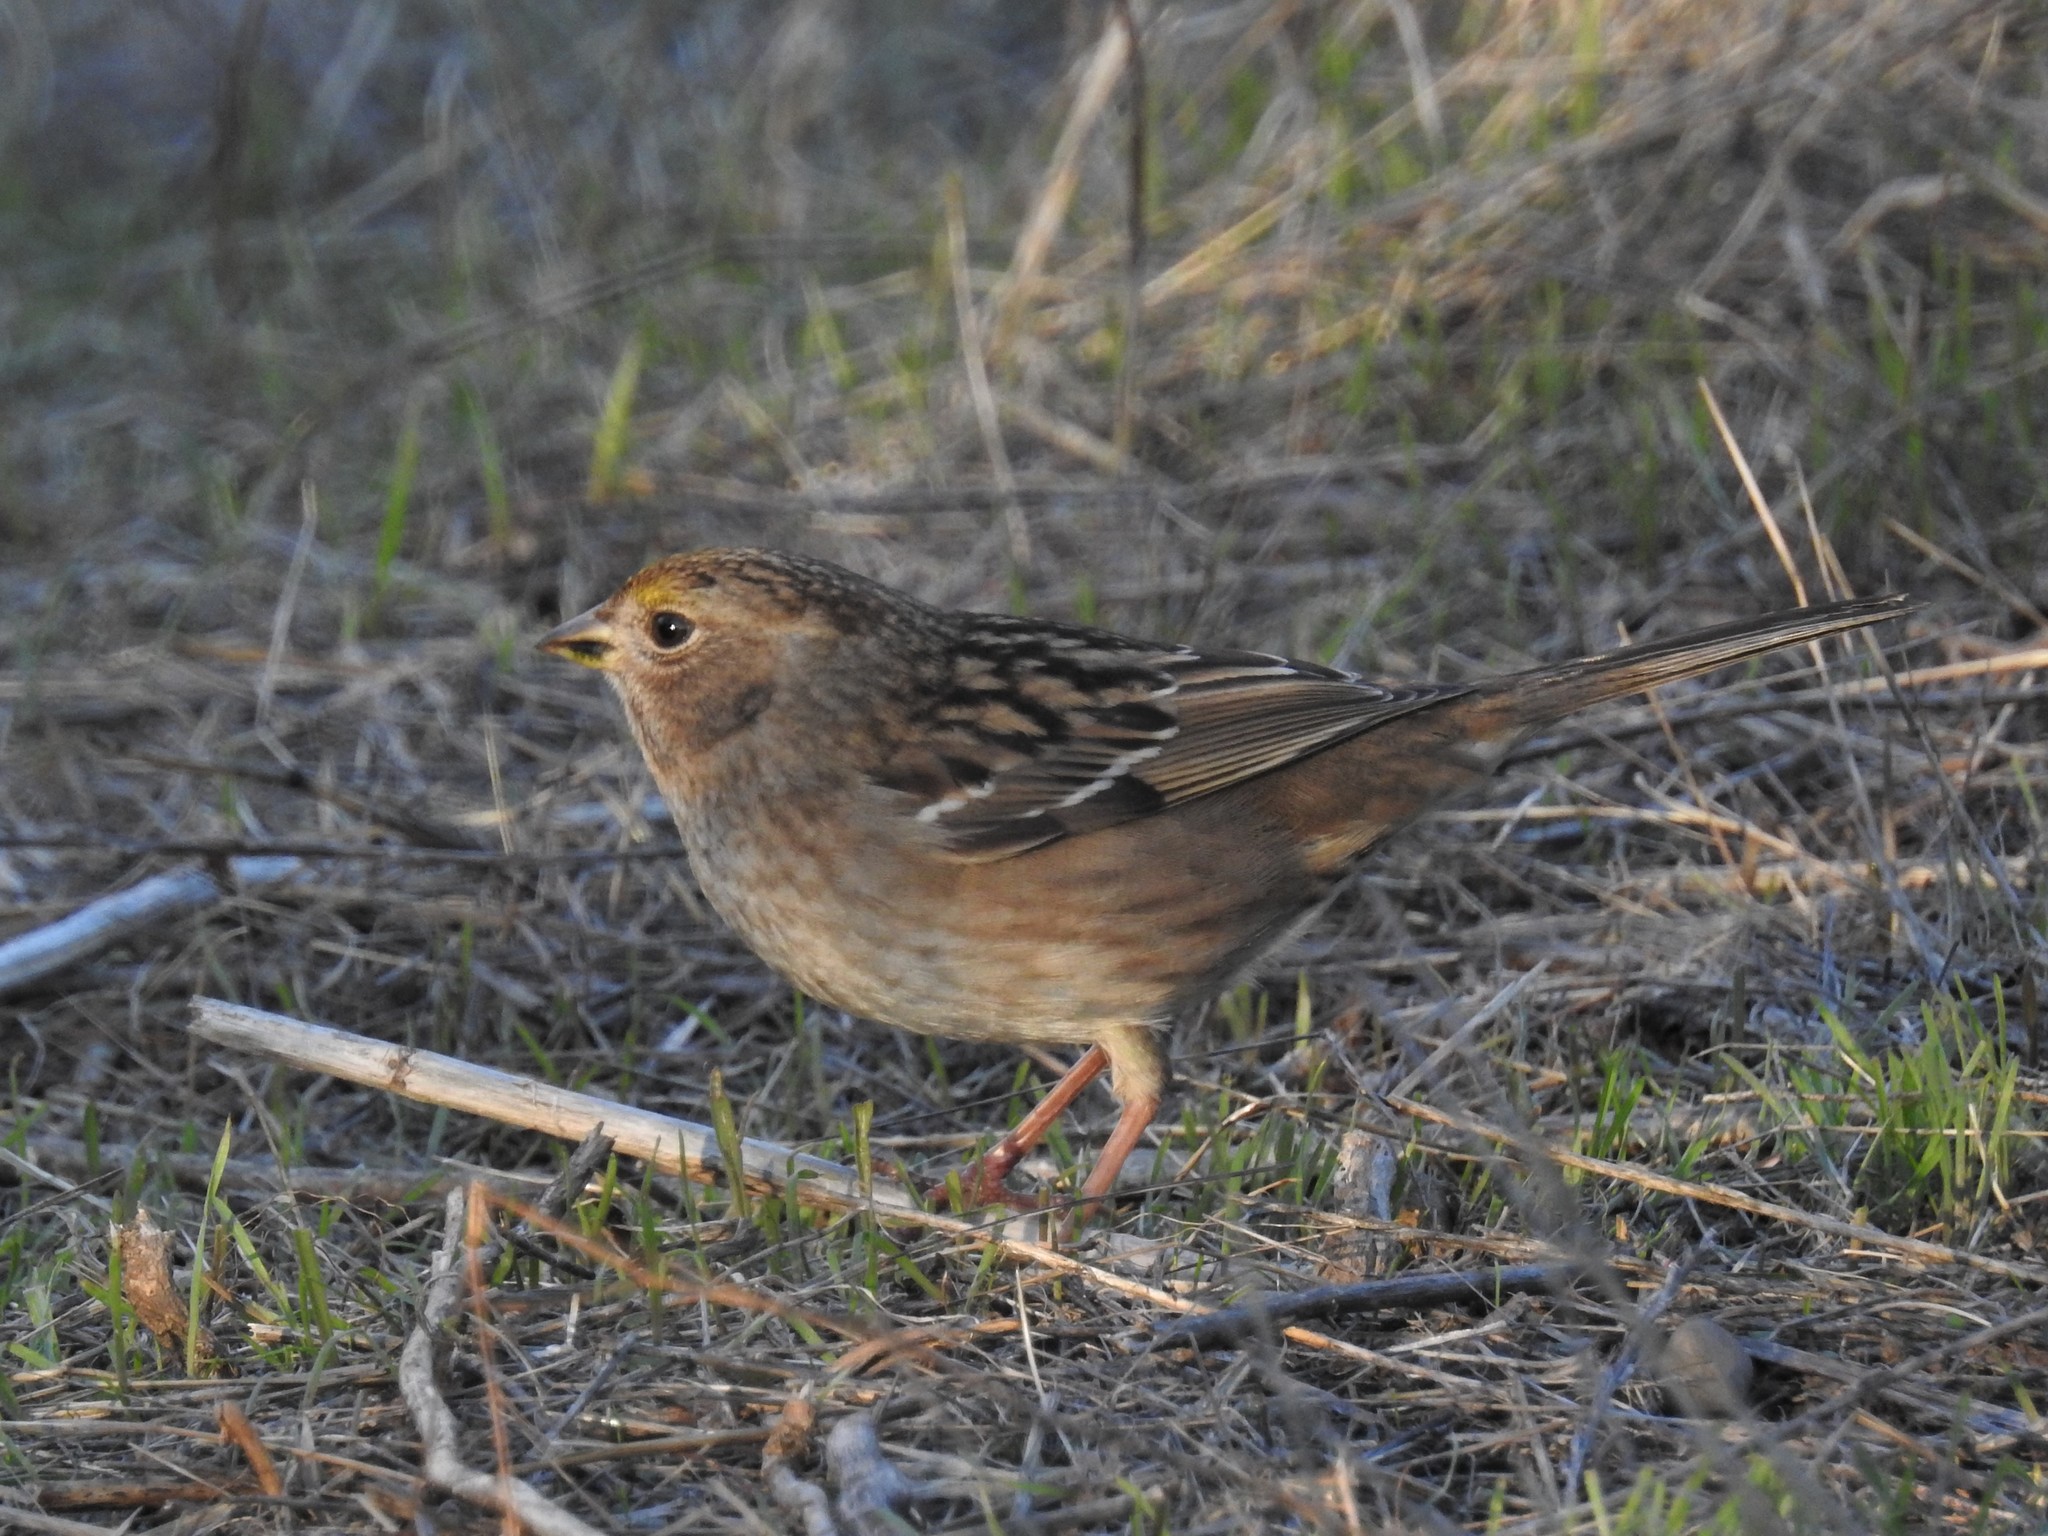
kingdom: Animalia
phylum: Chordata
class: Aves
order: Passeriformes
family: Passerellidae
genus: Zonotrichia
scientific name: Zonotrichia atricapilla
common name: Golden-crowned sparrow
